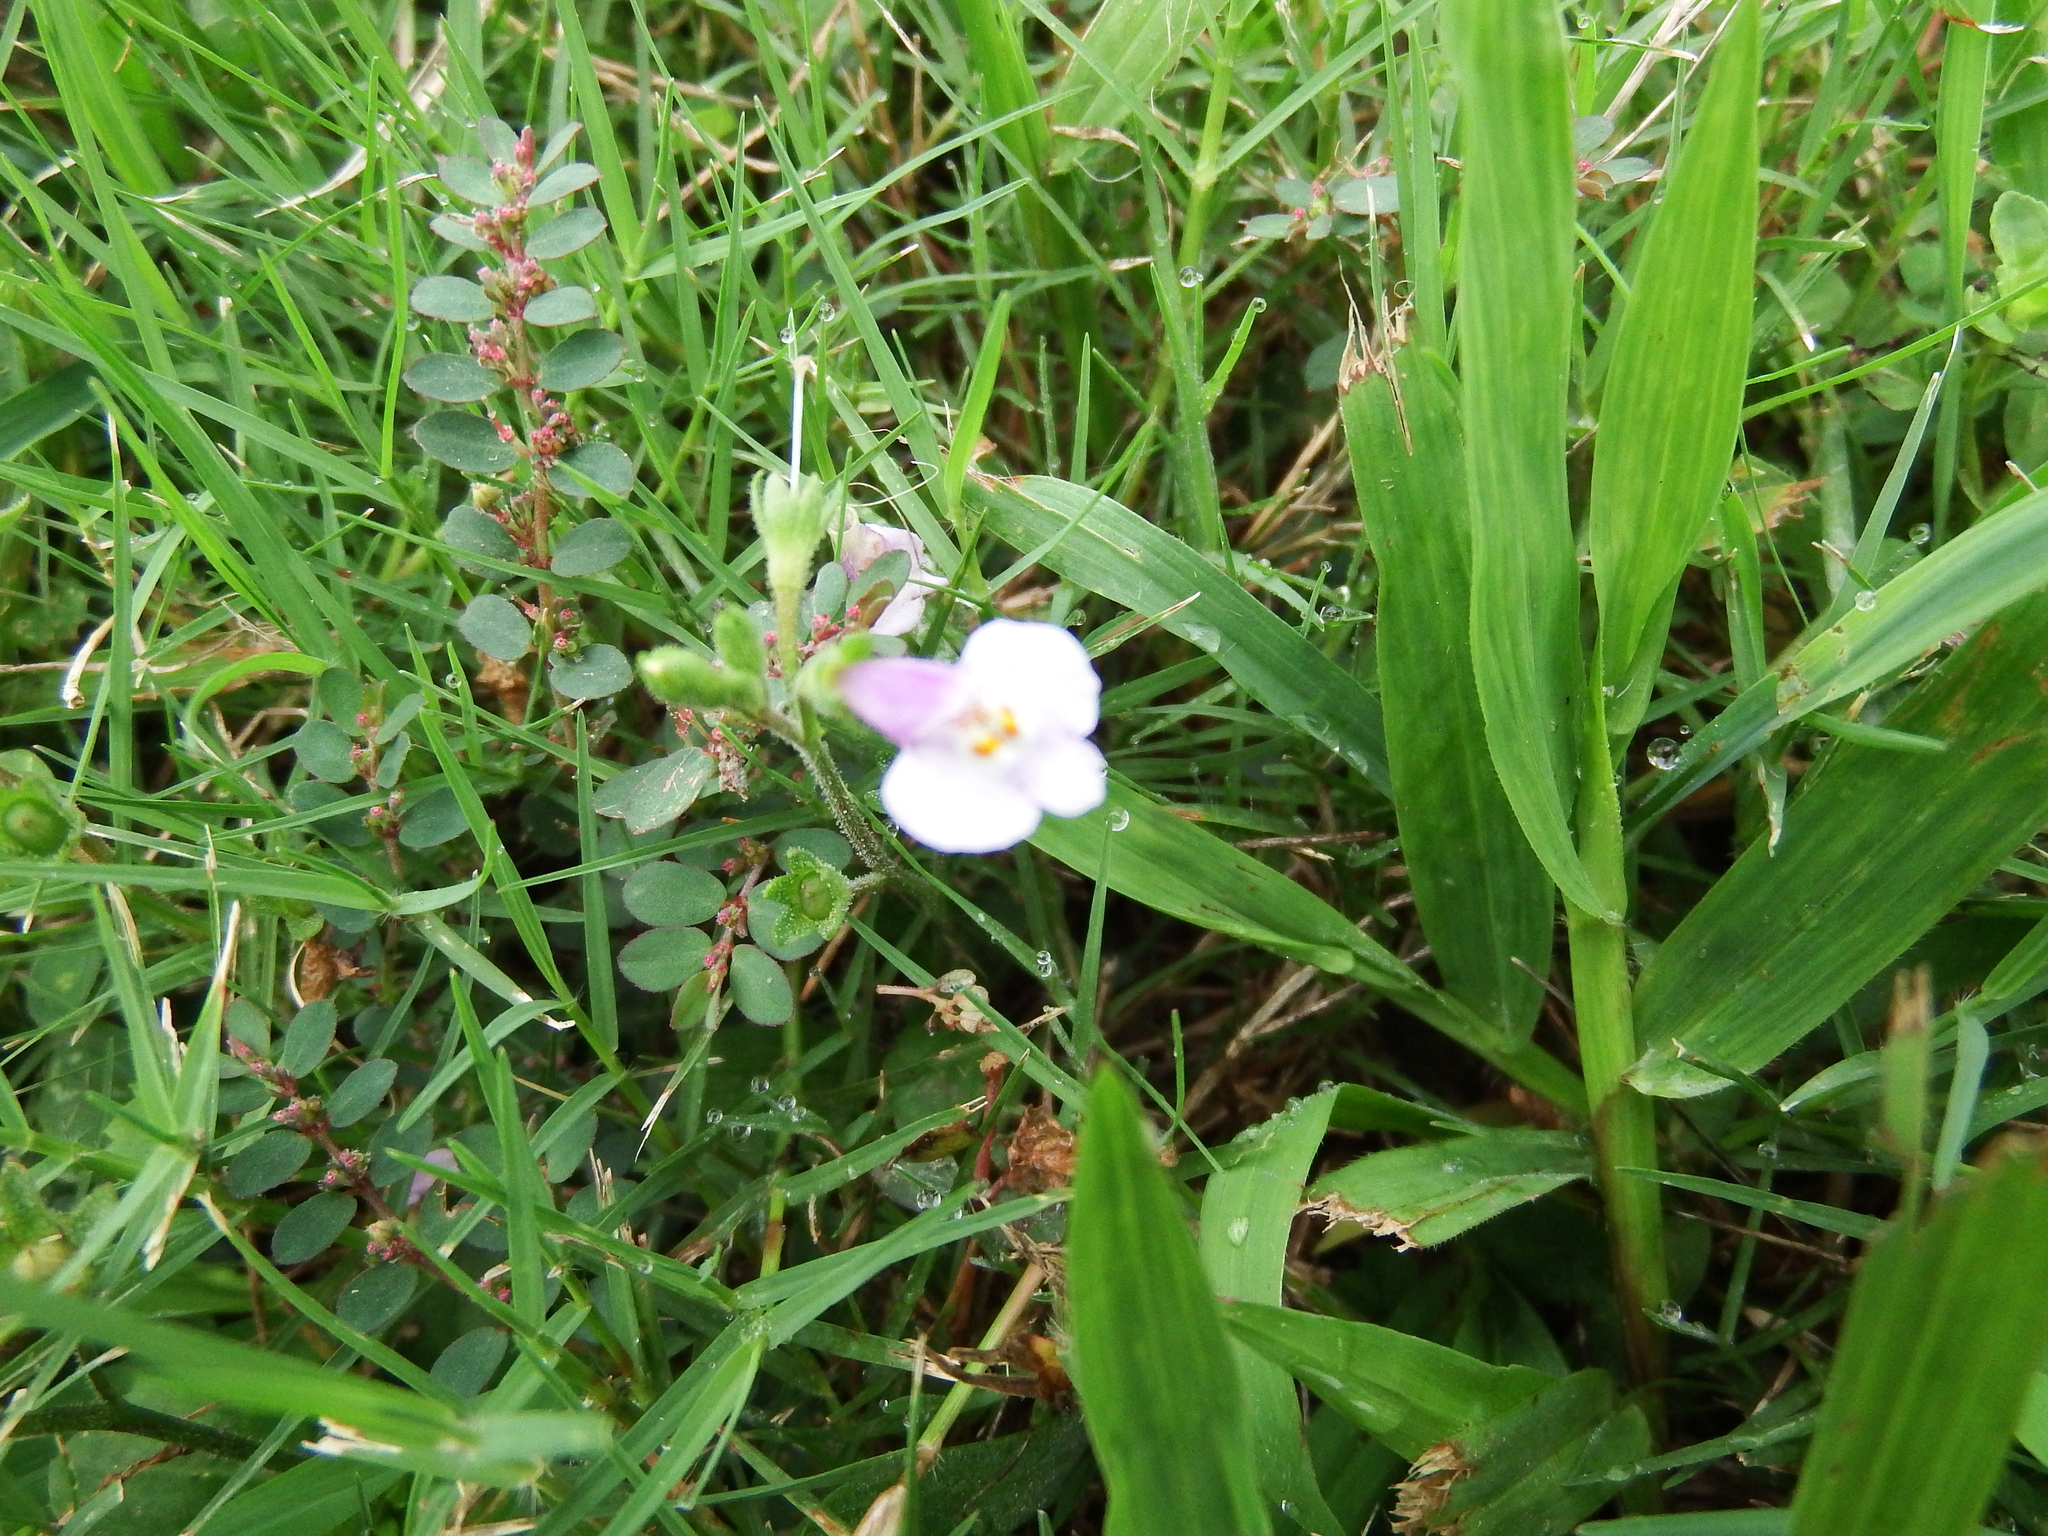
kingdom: Plantae
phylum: Tracheophyta
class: Magnoliopsida
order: Lamiales
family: Mazaceae
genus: Mazus
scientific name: Mazus pumilus
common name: Japanese mazus
